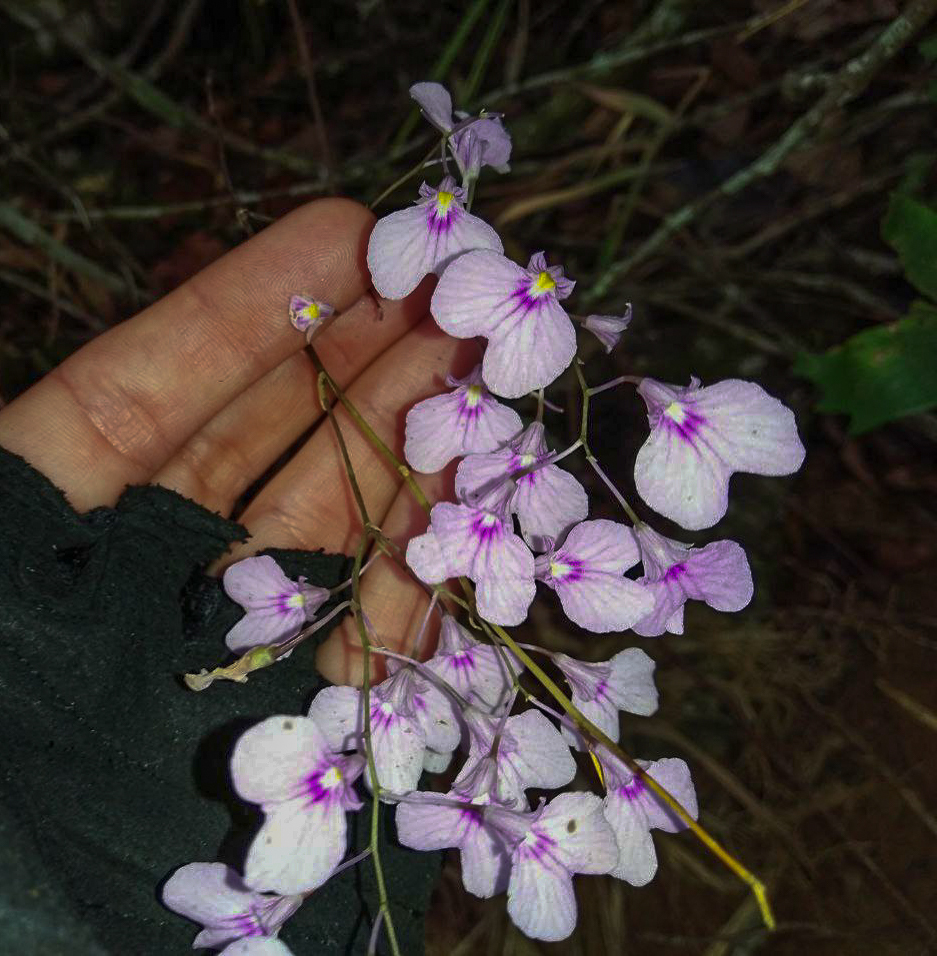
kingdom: Plantae
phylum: Tracheophyta
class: Liliopsida
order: Asparagales
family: Orchidaceae
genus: Ionopsis
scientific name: Ionopsis utricularioides
